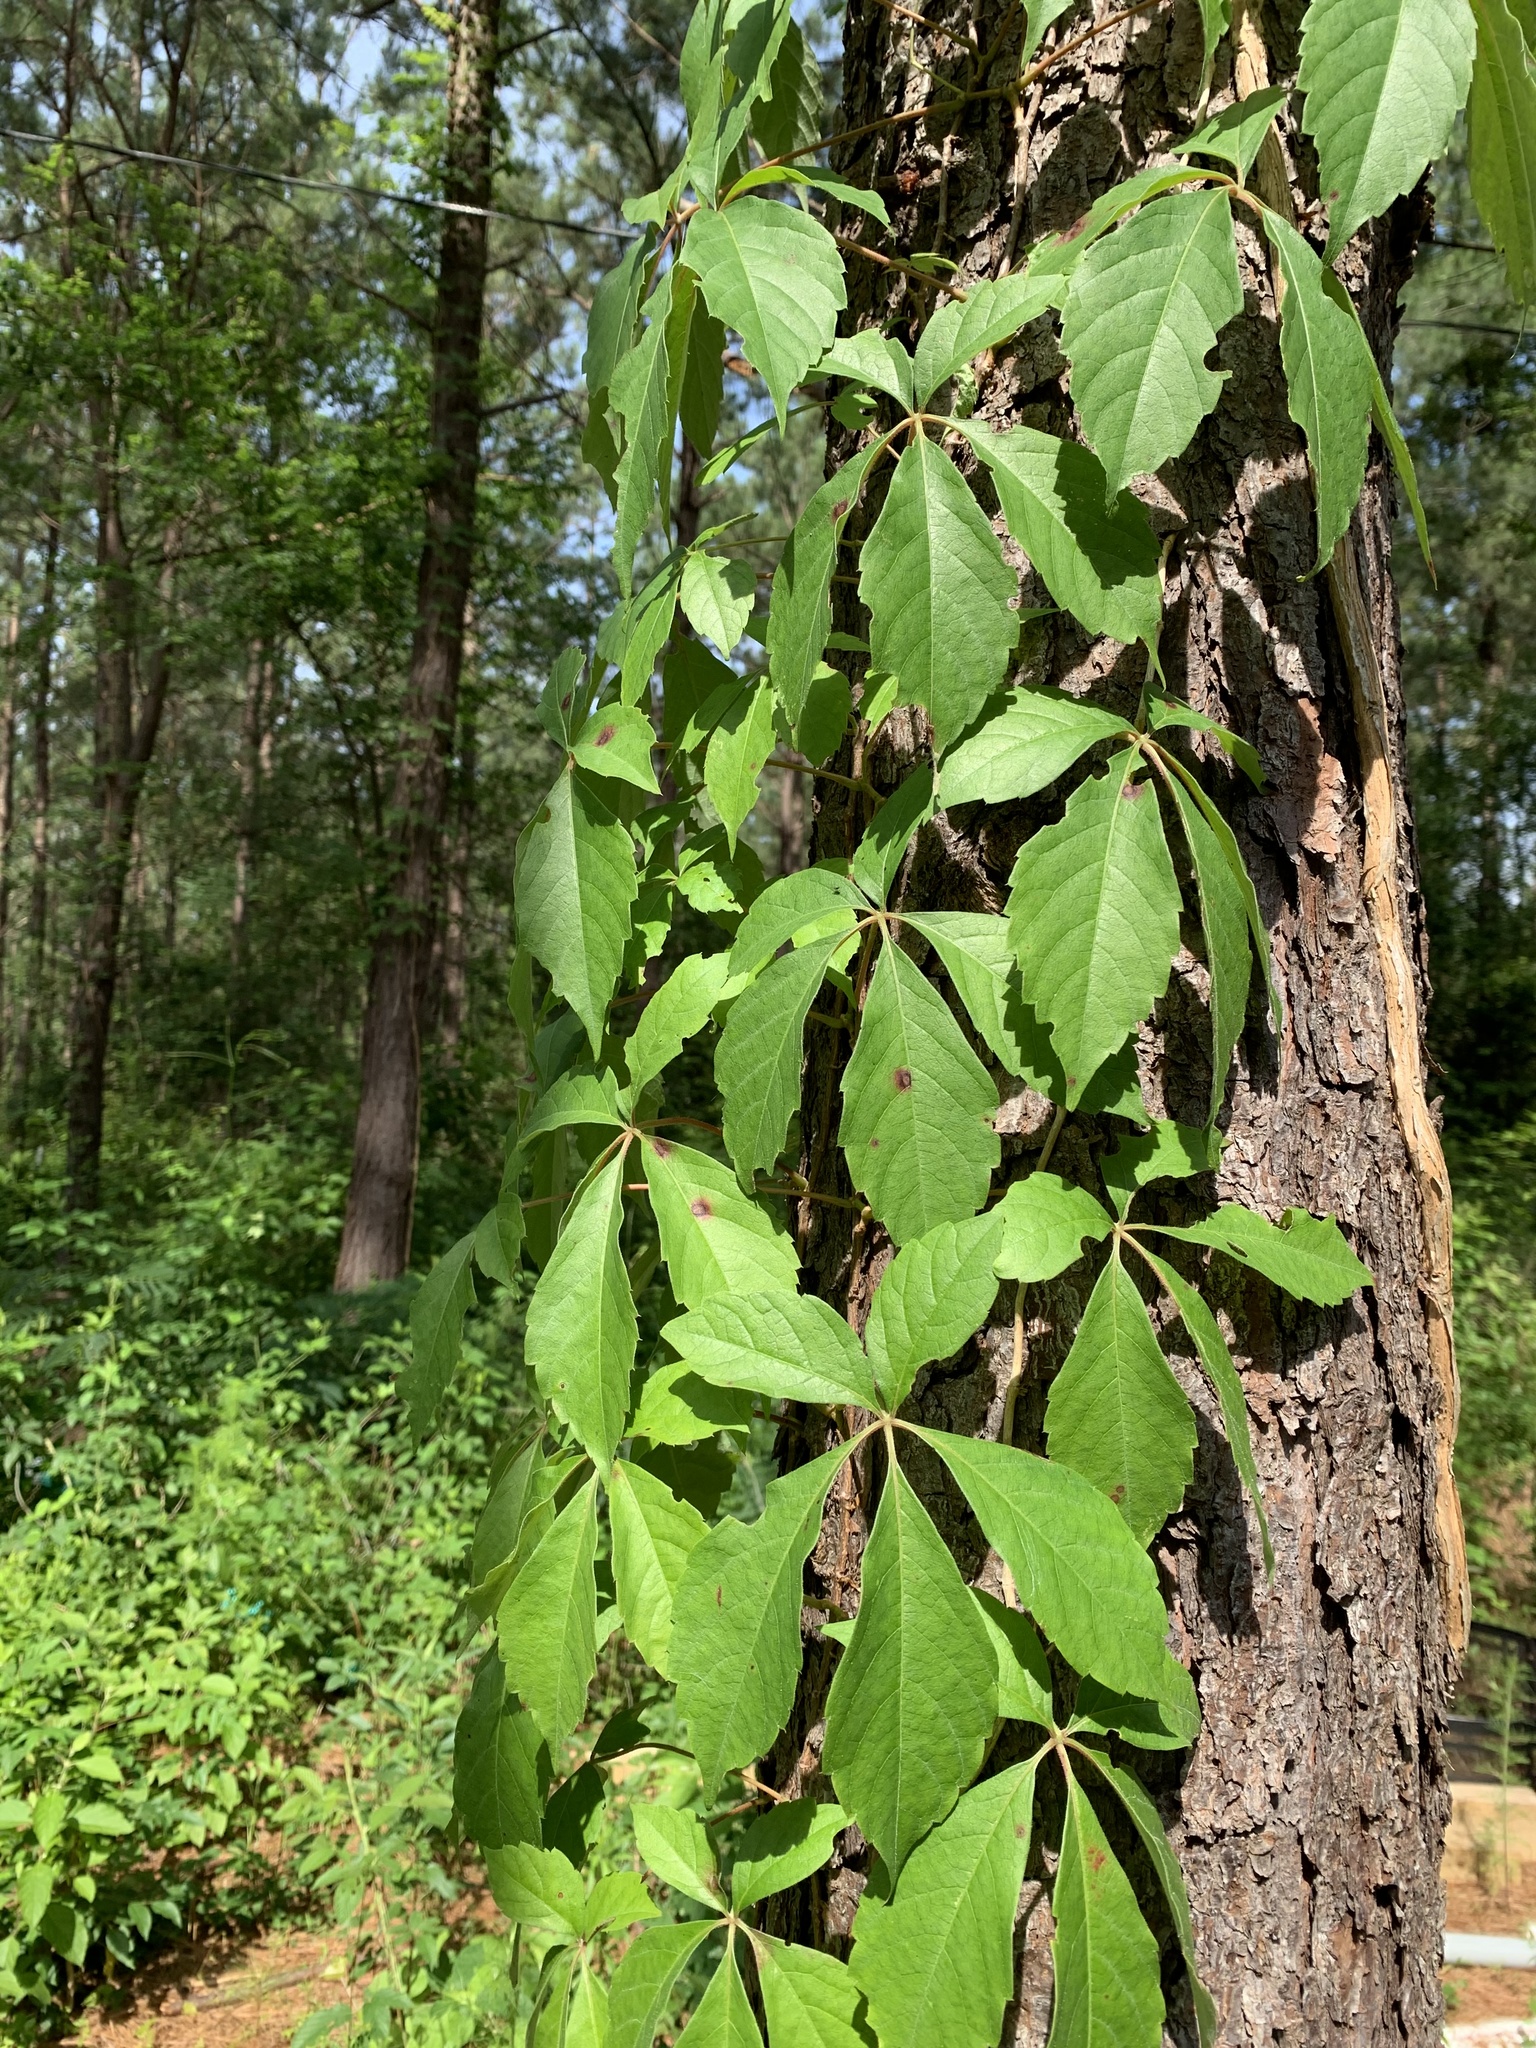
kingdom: Plantae
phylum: Tracheophyta
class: Magnoliopsida
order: Vitales
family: Vitaceae
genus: Parthenocissus
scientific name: Parthenocissus quinquefolia
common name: Virginia-creeper
